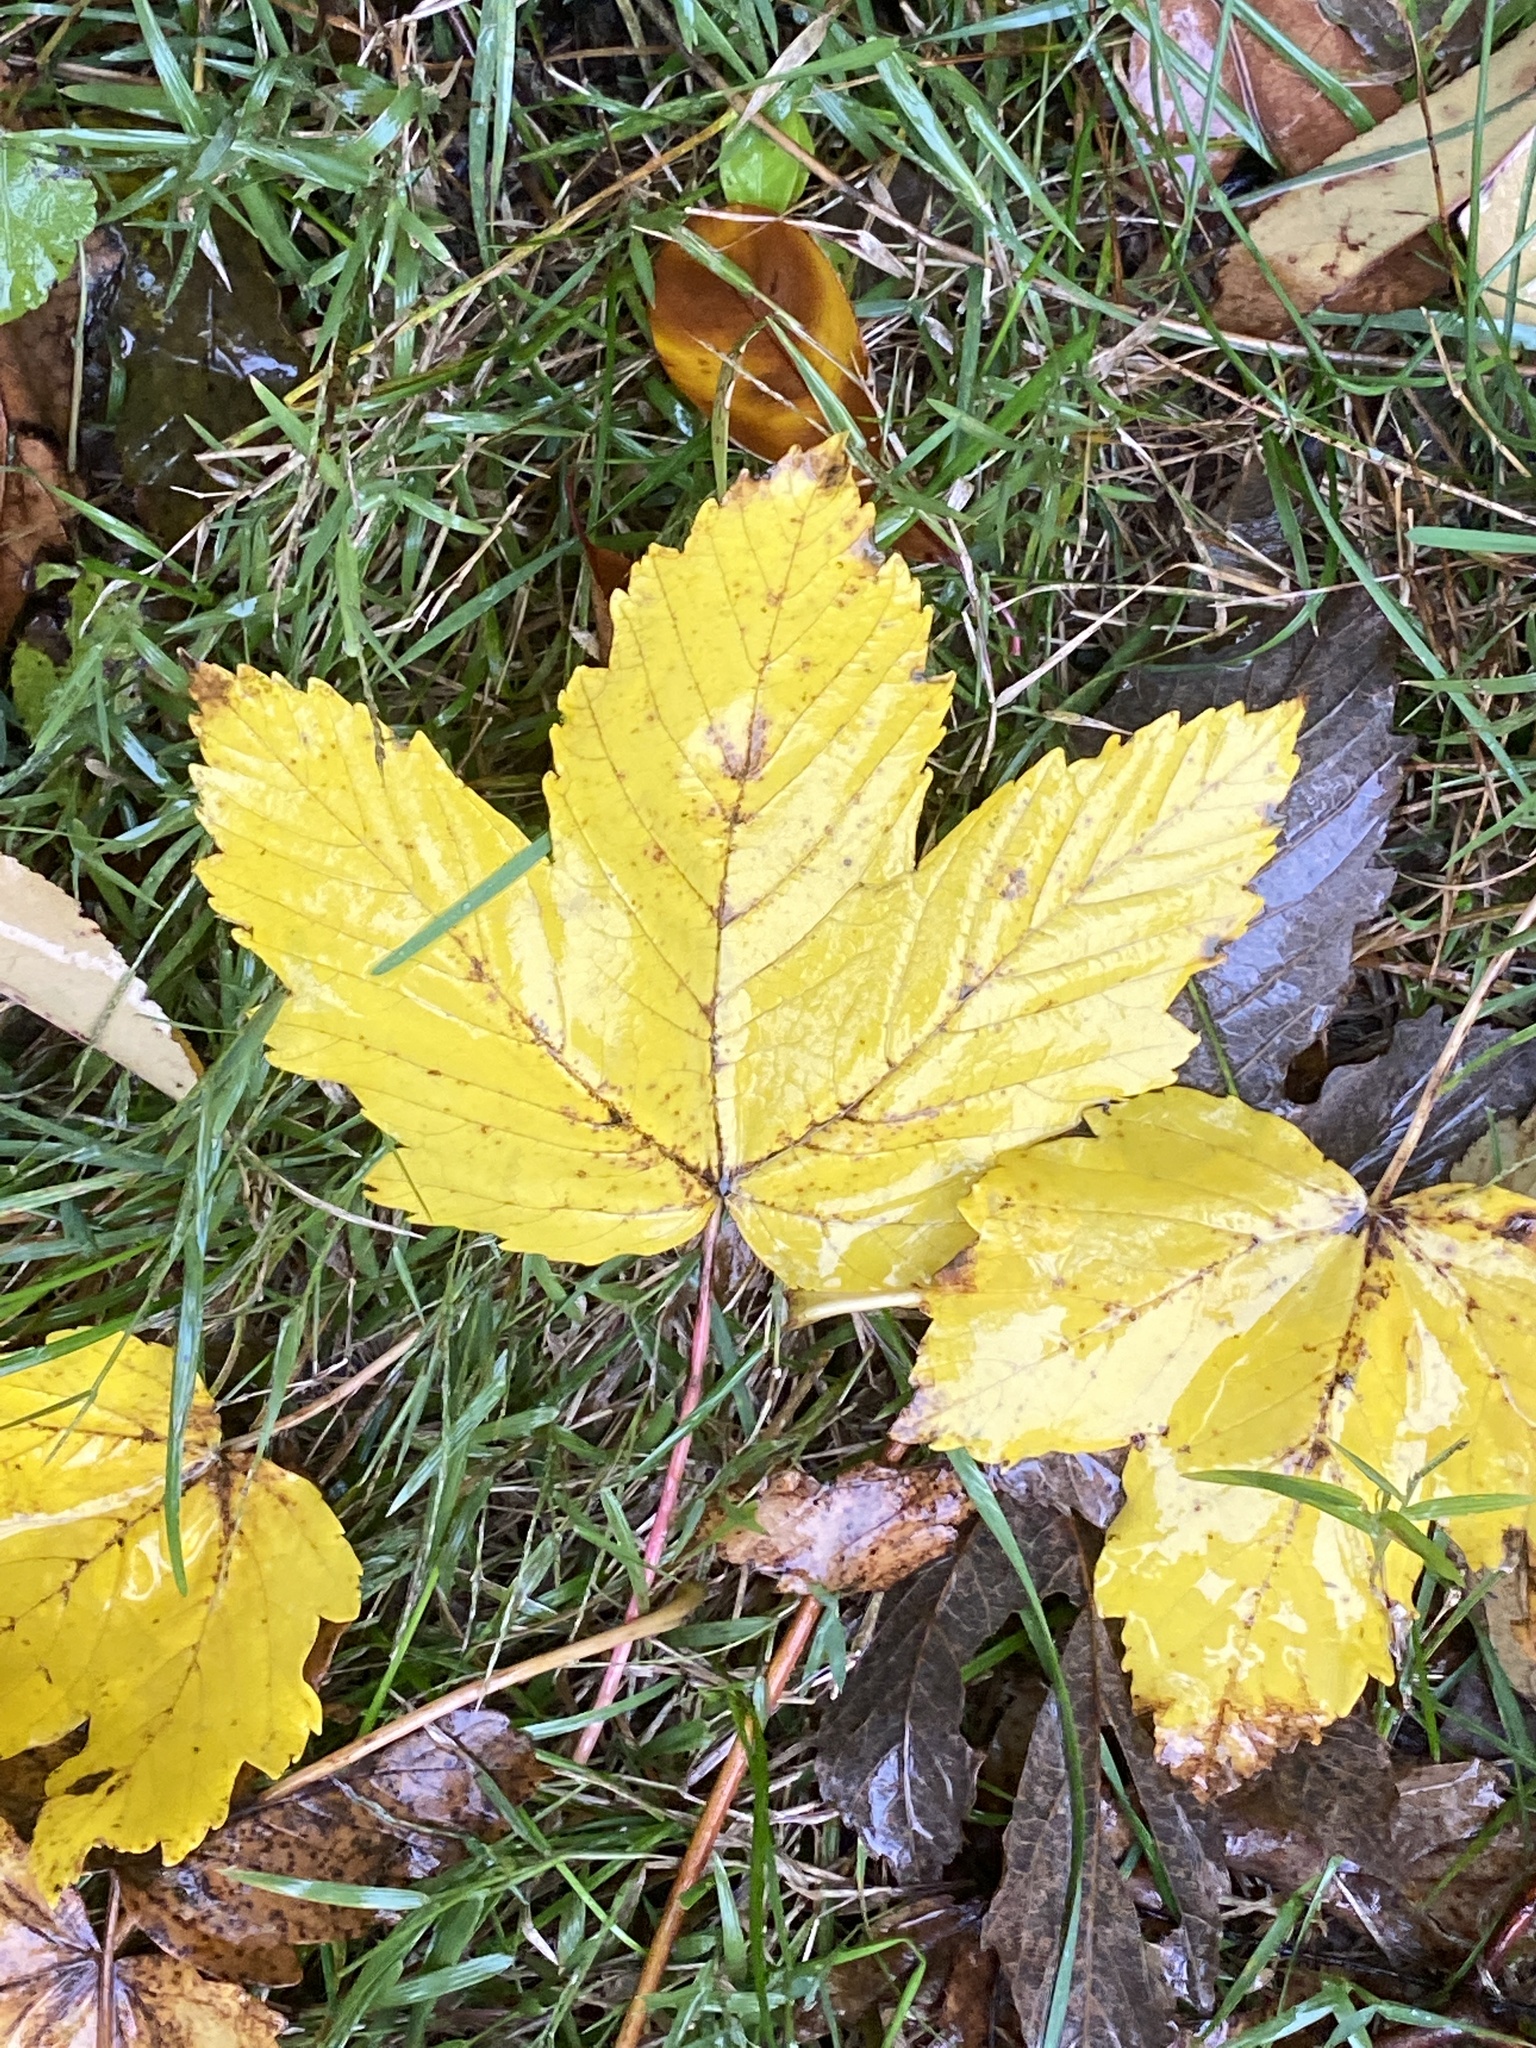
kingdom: Plantae
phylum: Tracheophyta
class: Magnoliopsida
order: Sapindales
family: Sapindaceae
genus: Acer
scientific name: Acer pseudoplatanus
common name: Sycamore
